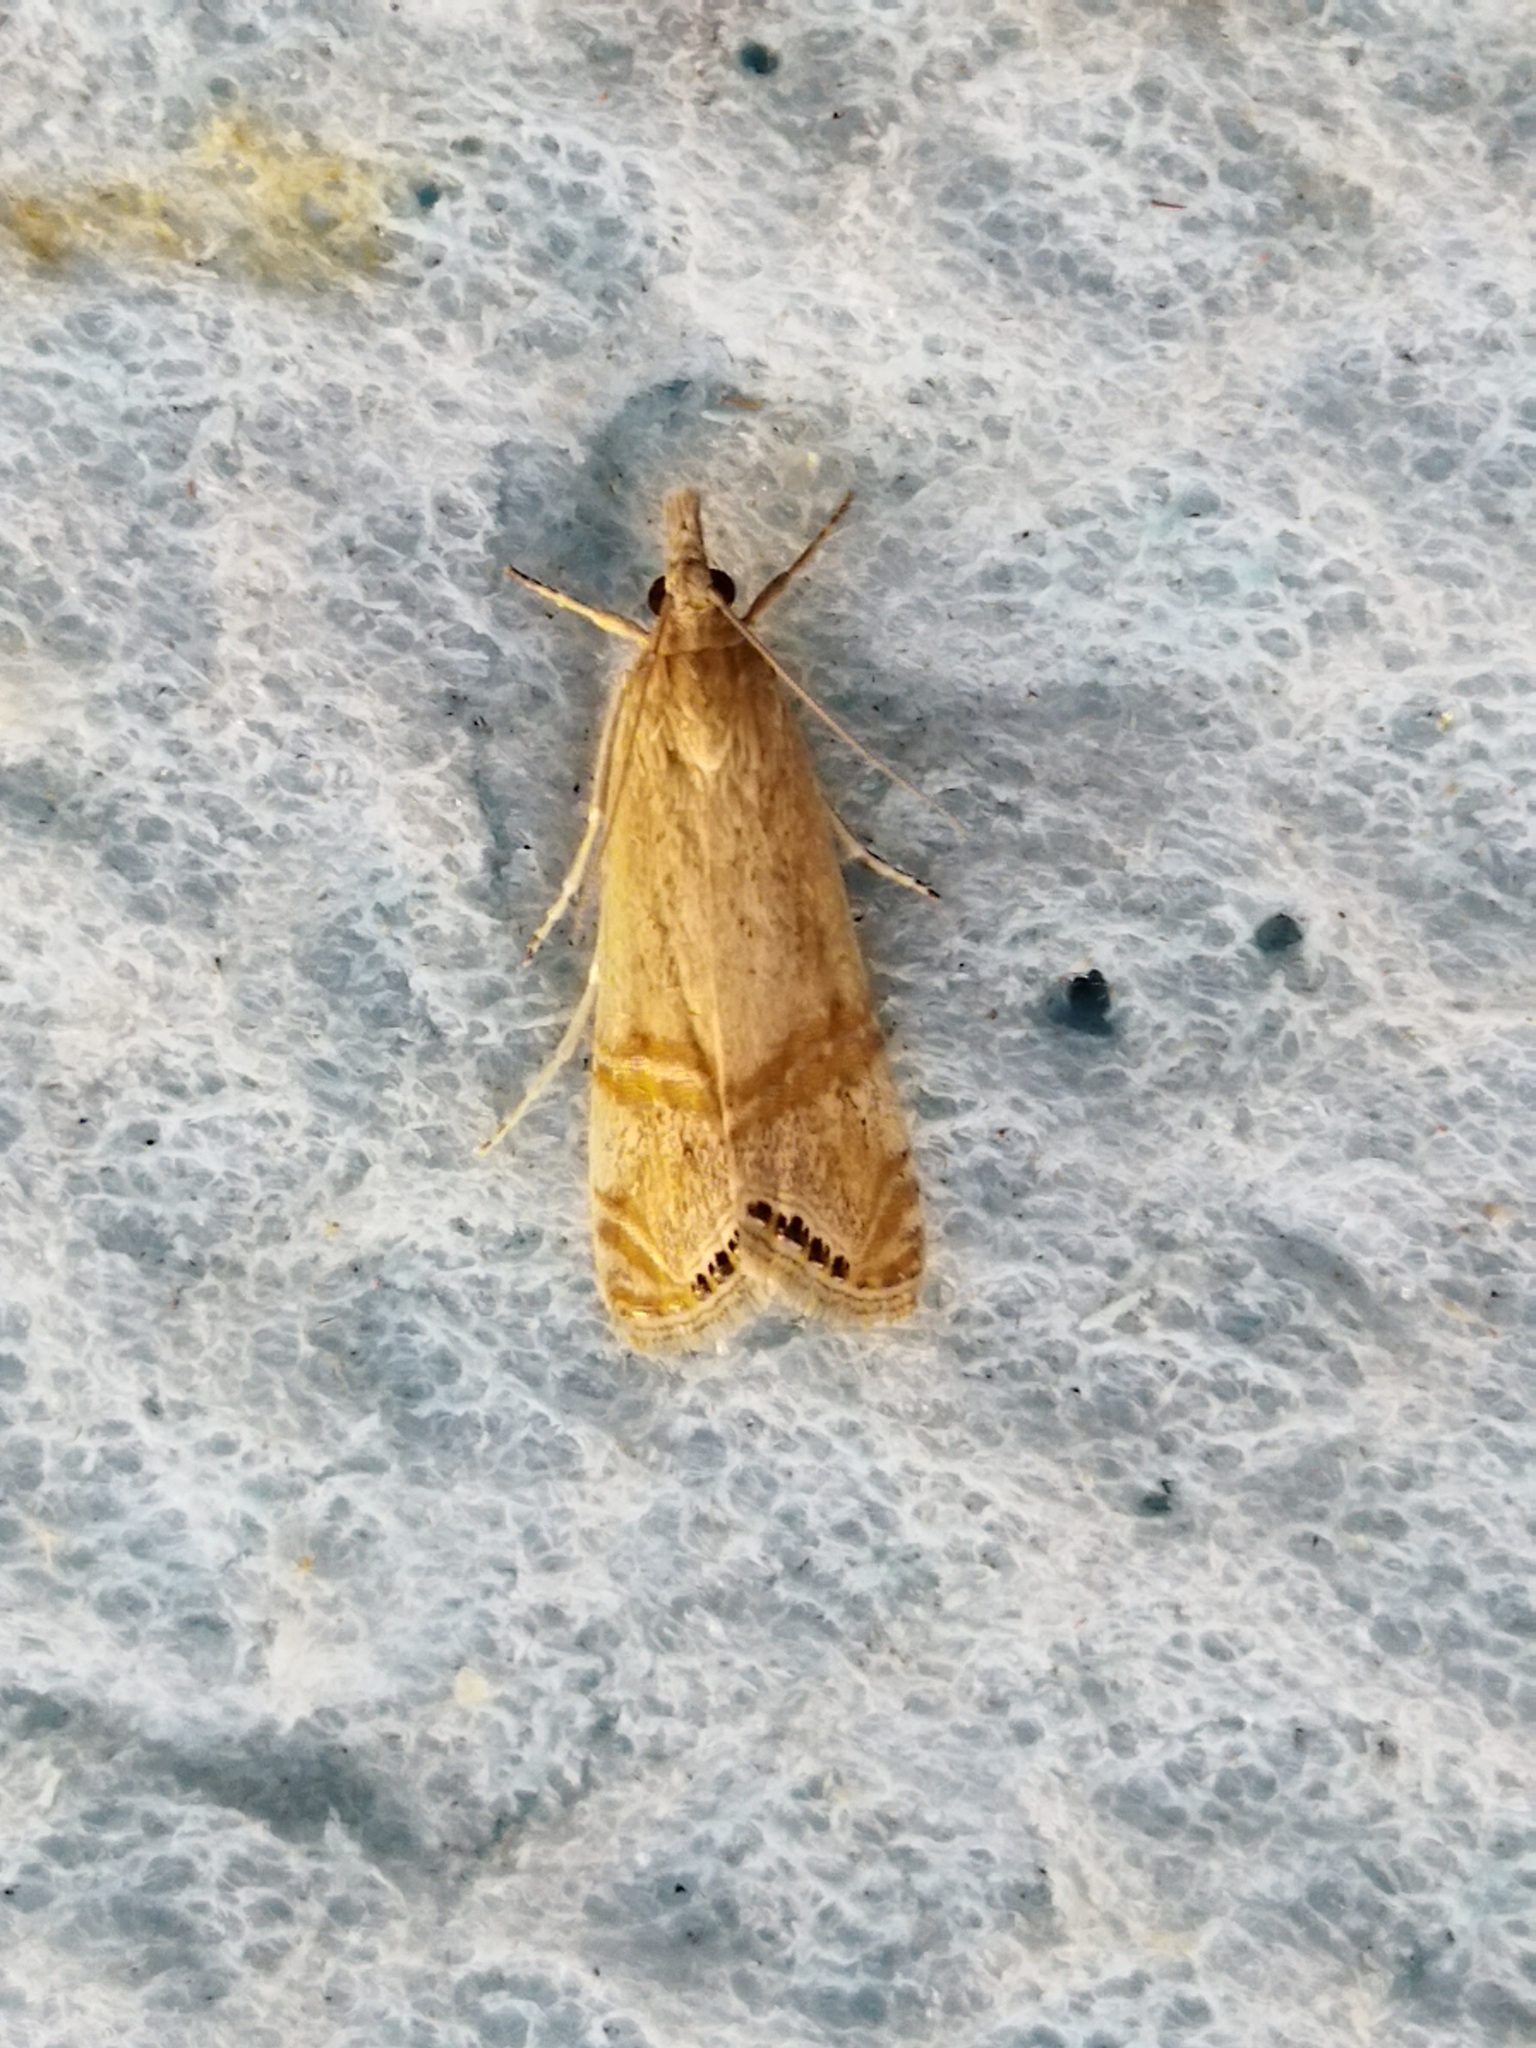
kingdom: Animalia
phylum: Arthropoda
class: Insecta
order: Lepidoptera
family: Crambidae
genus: Euchromius
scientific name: Euchromius ocellea
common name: Necklace veneer moth
